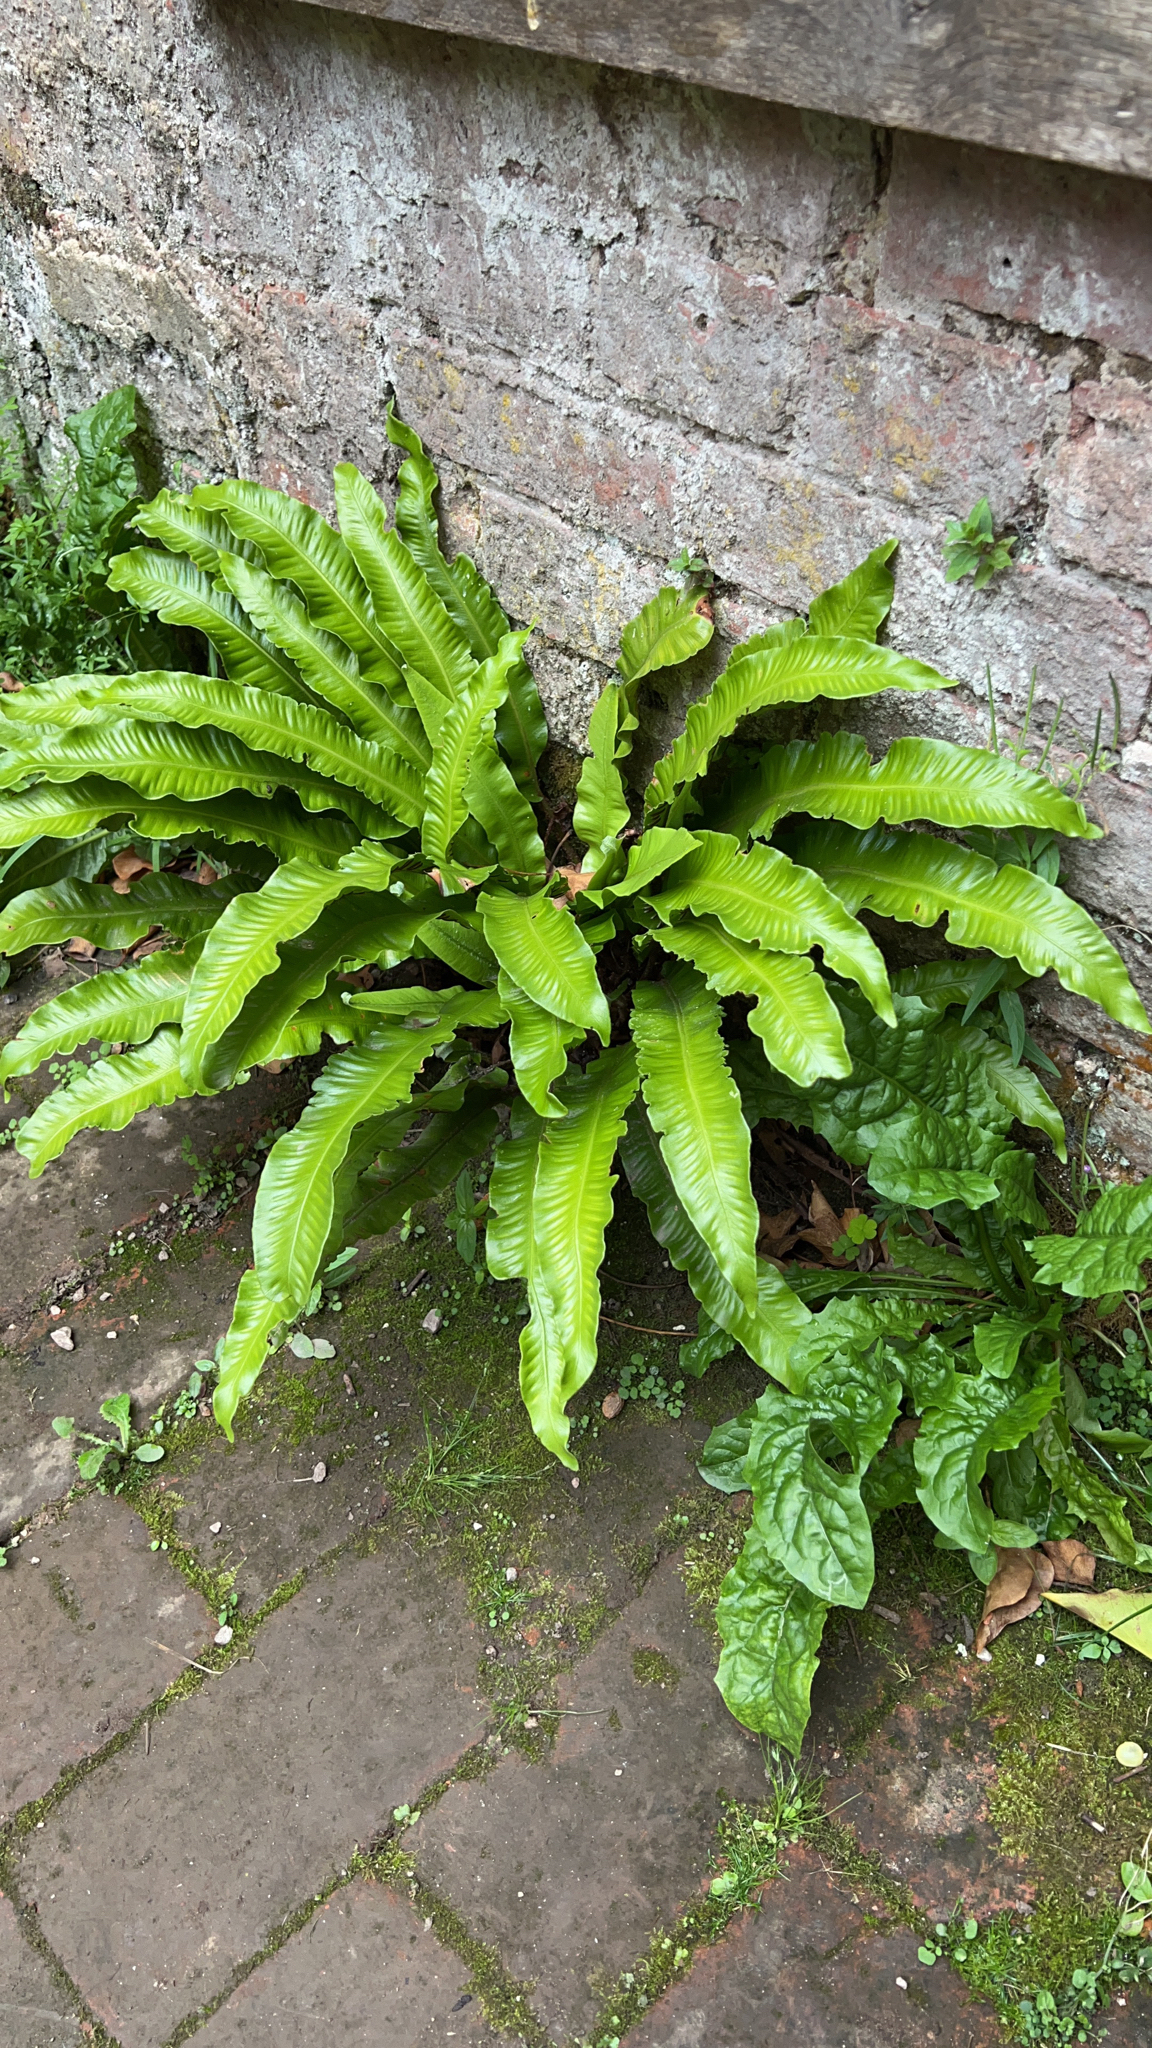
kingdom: Plantae
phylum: Tracheophyta
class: Polypodiopsida
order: Polypodiales
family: Aspleniaceae
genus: Asplenium
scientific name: Asplenium scolopendrium
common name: Hart's-tongue fern
